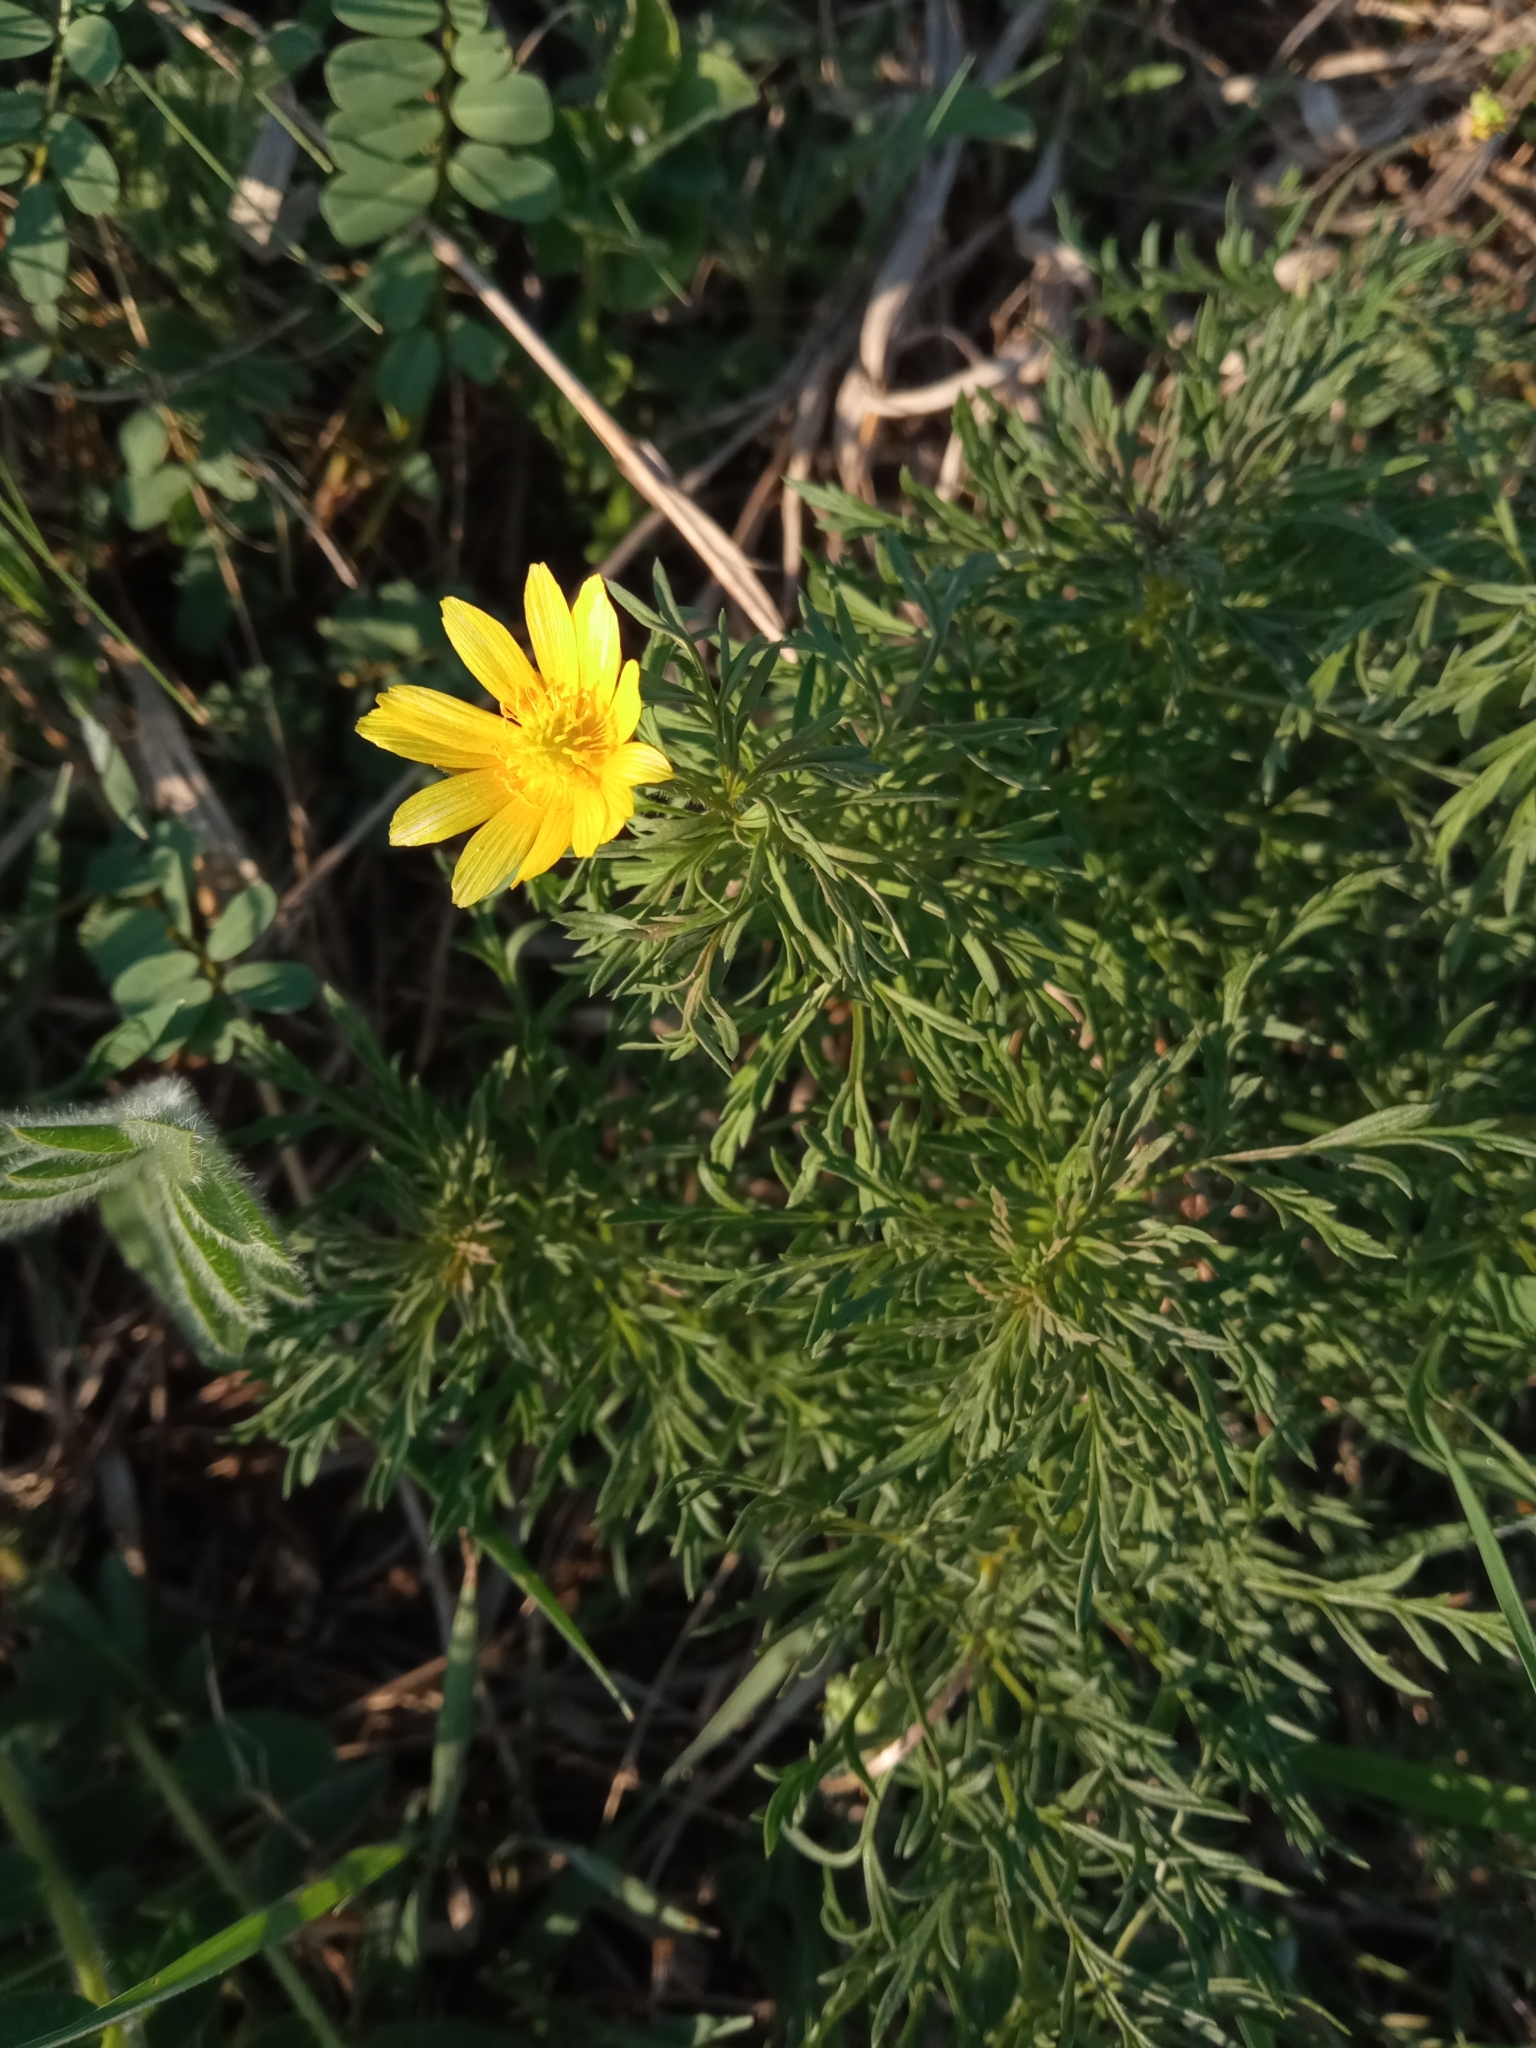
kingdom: Plantae
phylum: Tracheophyta
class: Magnoliopsida
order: Ranunculales
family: Ranunculaceae
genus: Adonis
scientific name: Adonis volgensis
